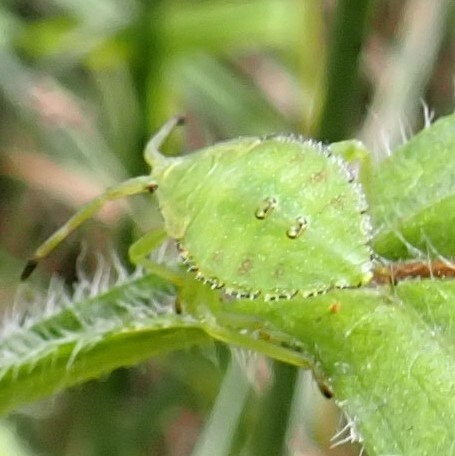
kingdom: Animalia
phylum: Arthropoda
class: Insecta
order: Hemiptera
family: Coreidae
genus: Piezogaster
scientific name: Piezogaster calcarator
